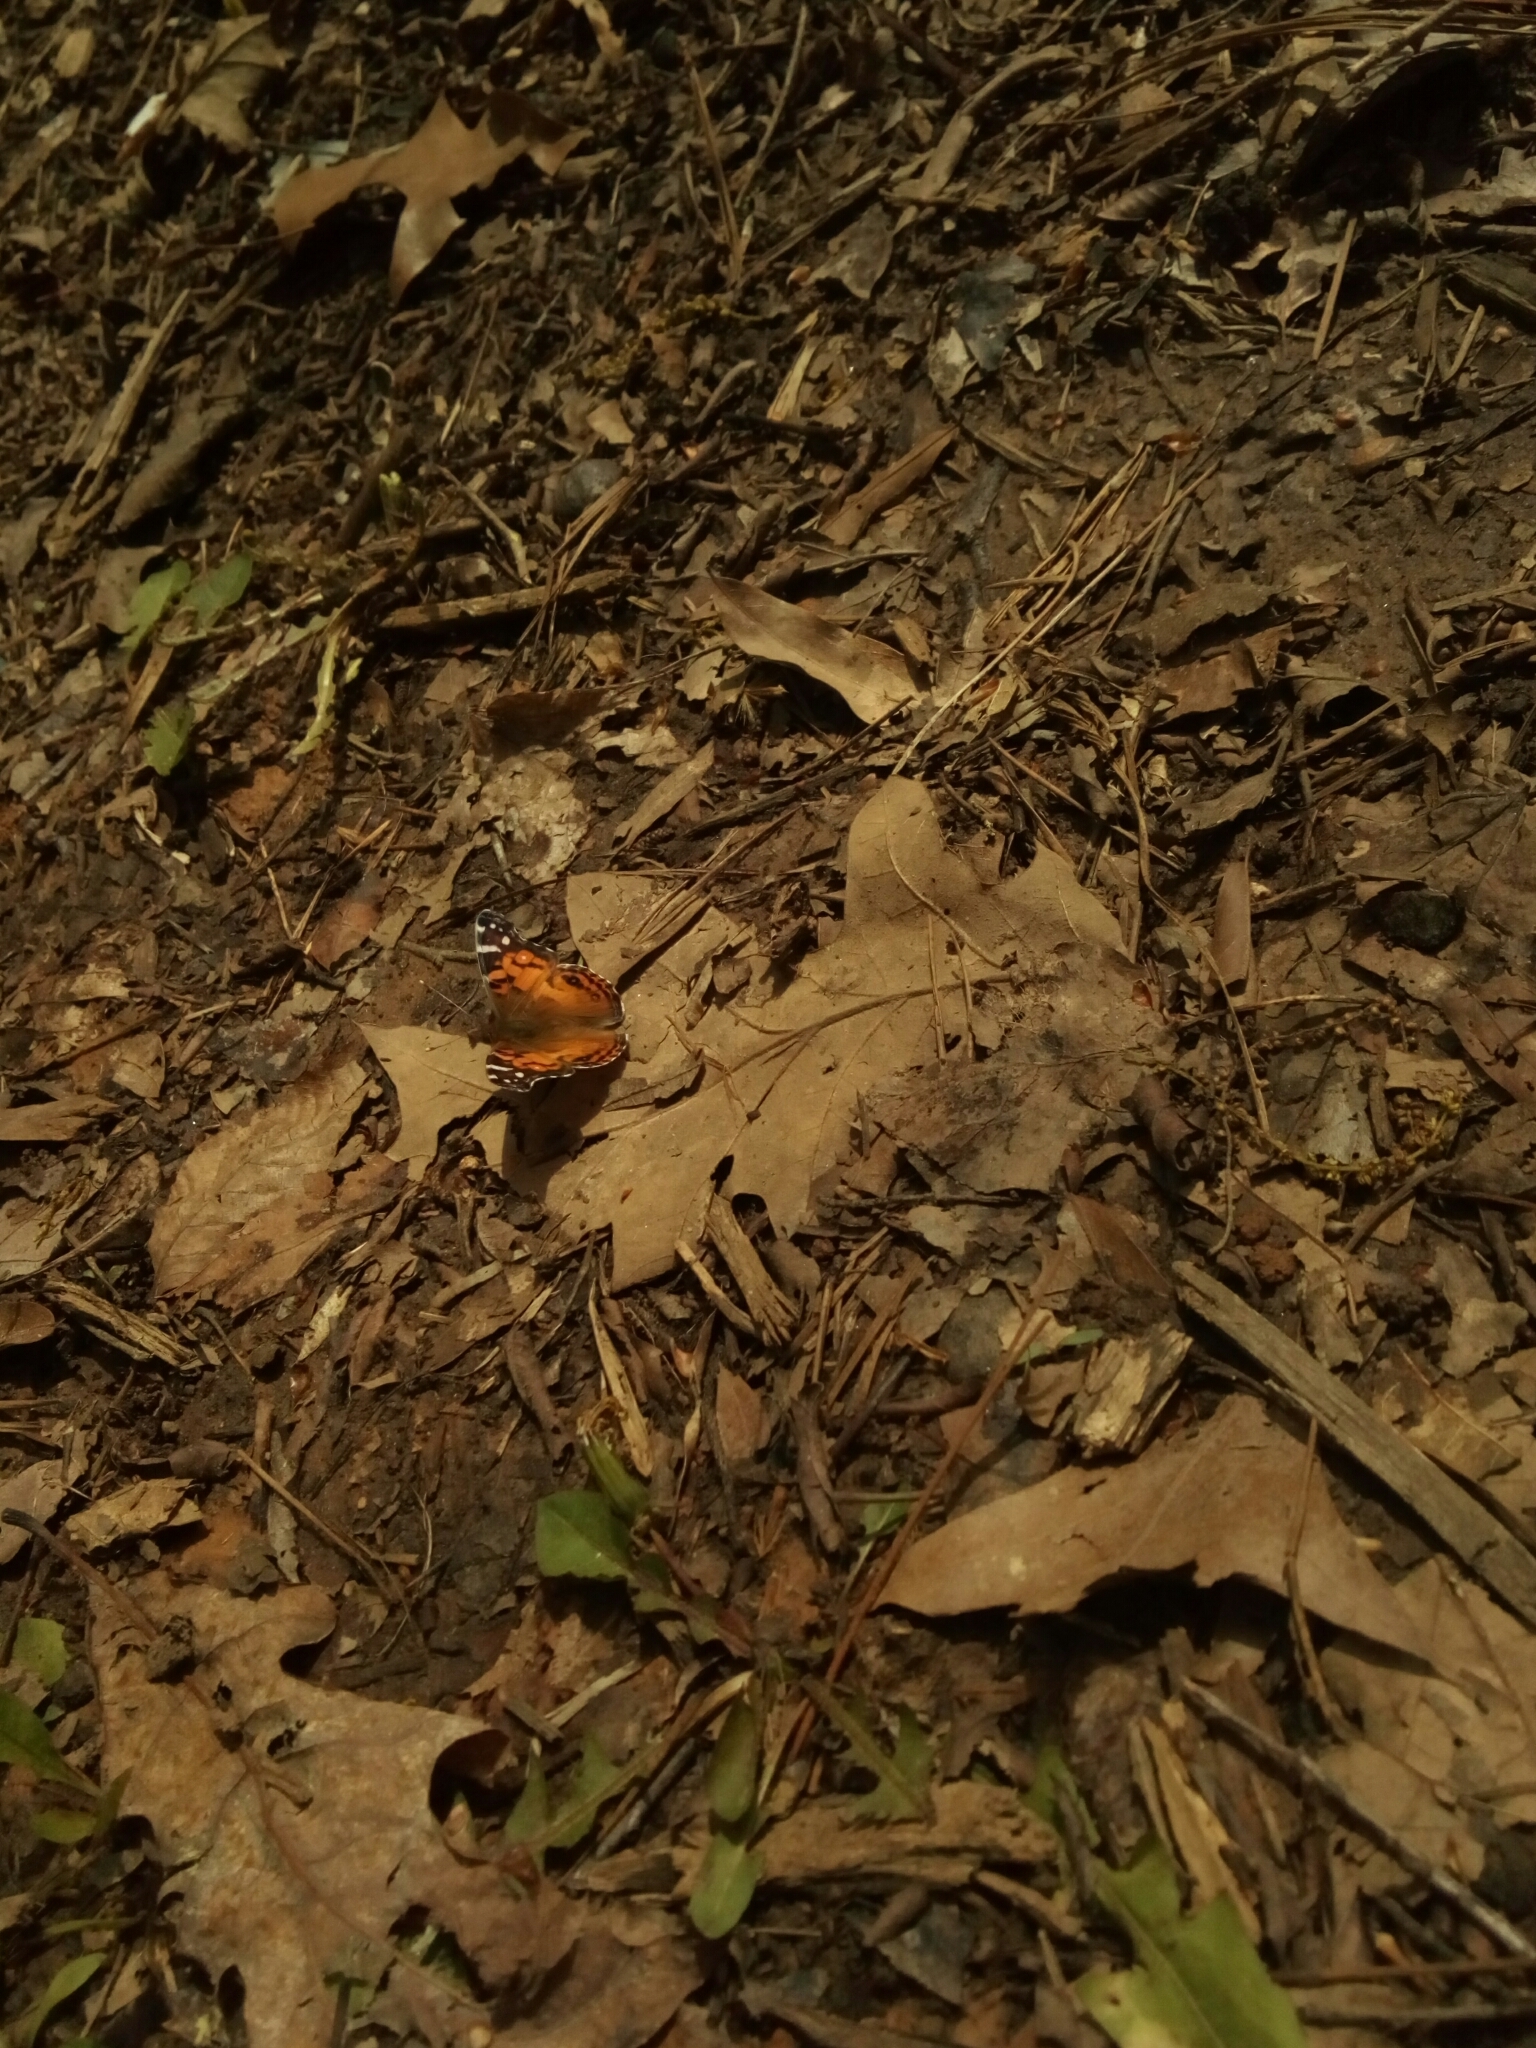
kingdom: Animalia
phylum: Arthropoda
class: Insecta
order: Lepidoptera
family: Nymphalidae
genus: Vanessa
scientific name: Vanessa virginiensis
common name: American lady
